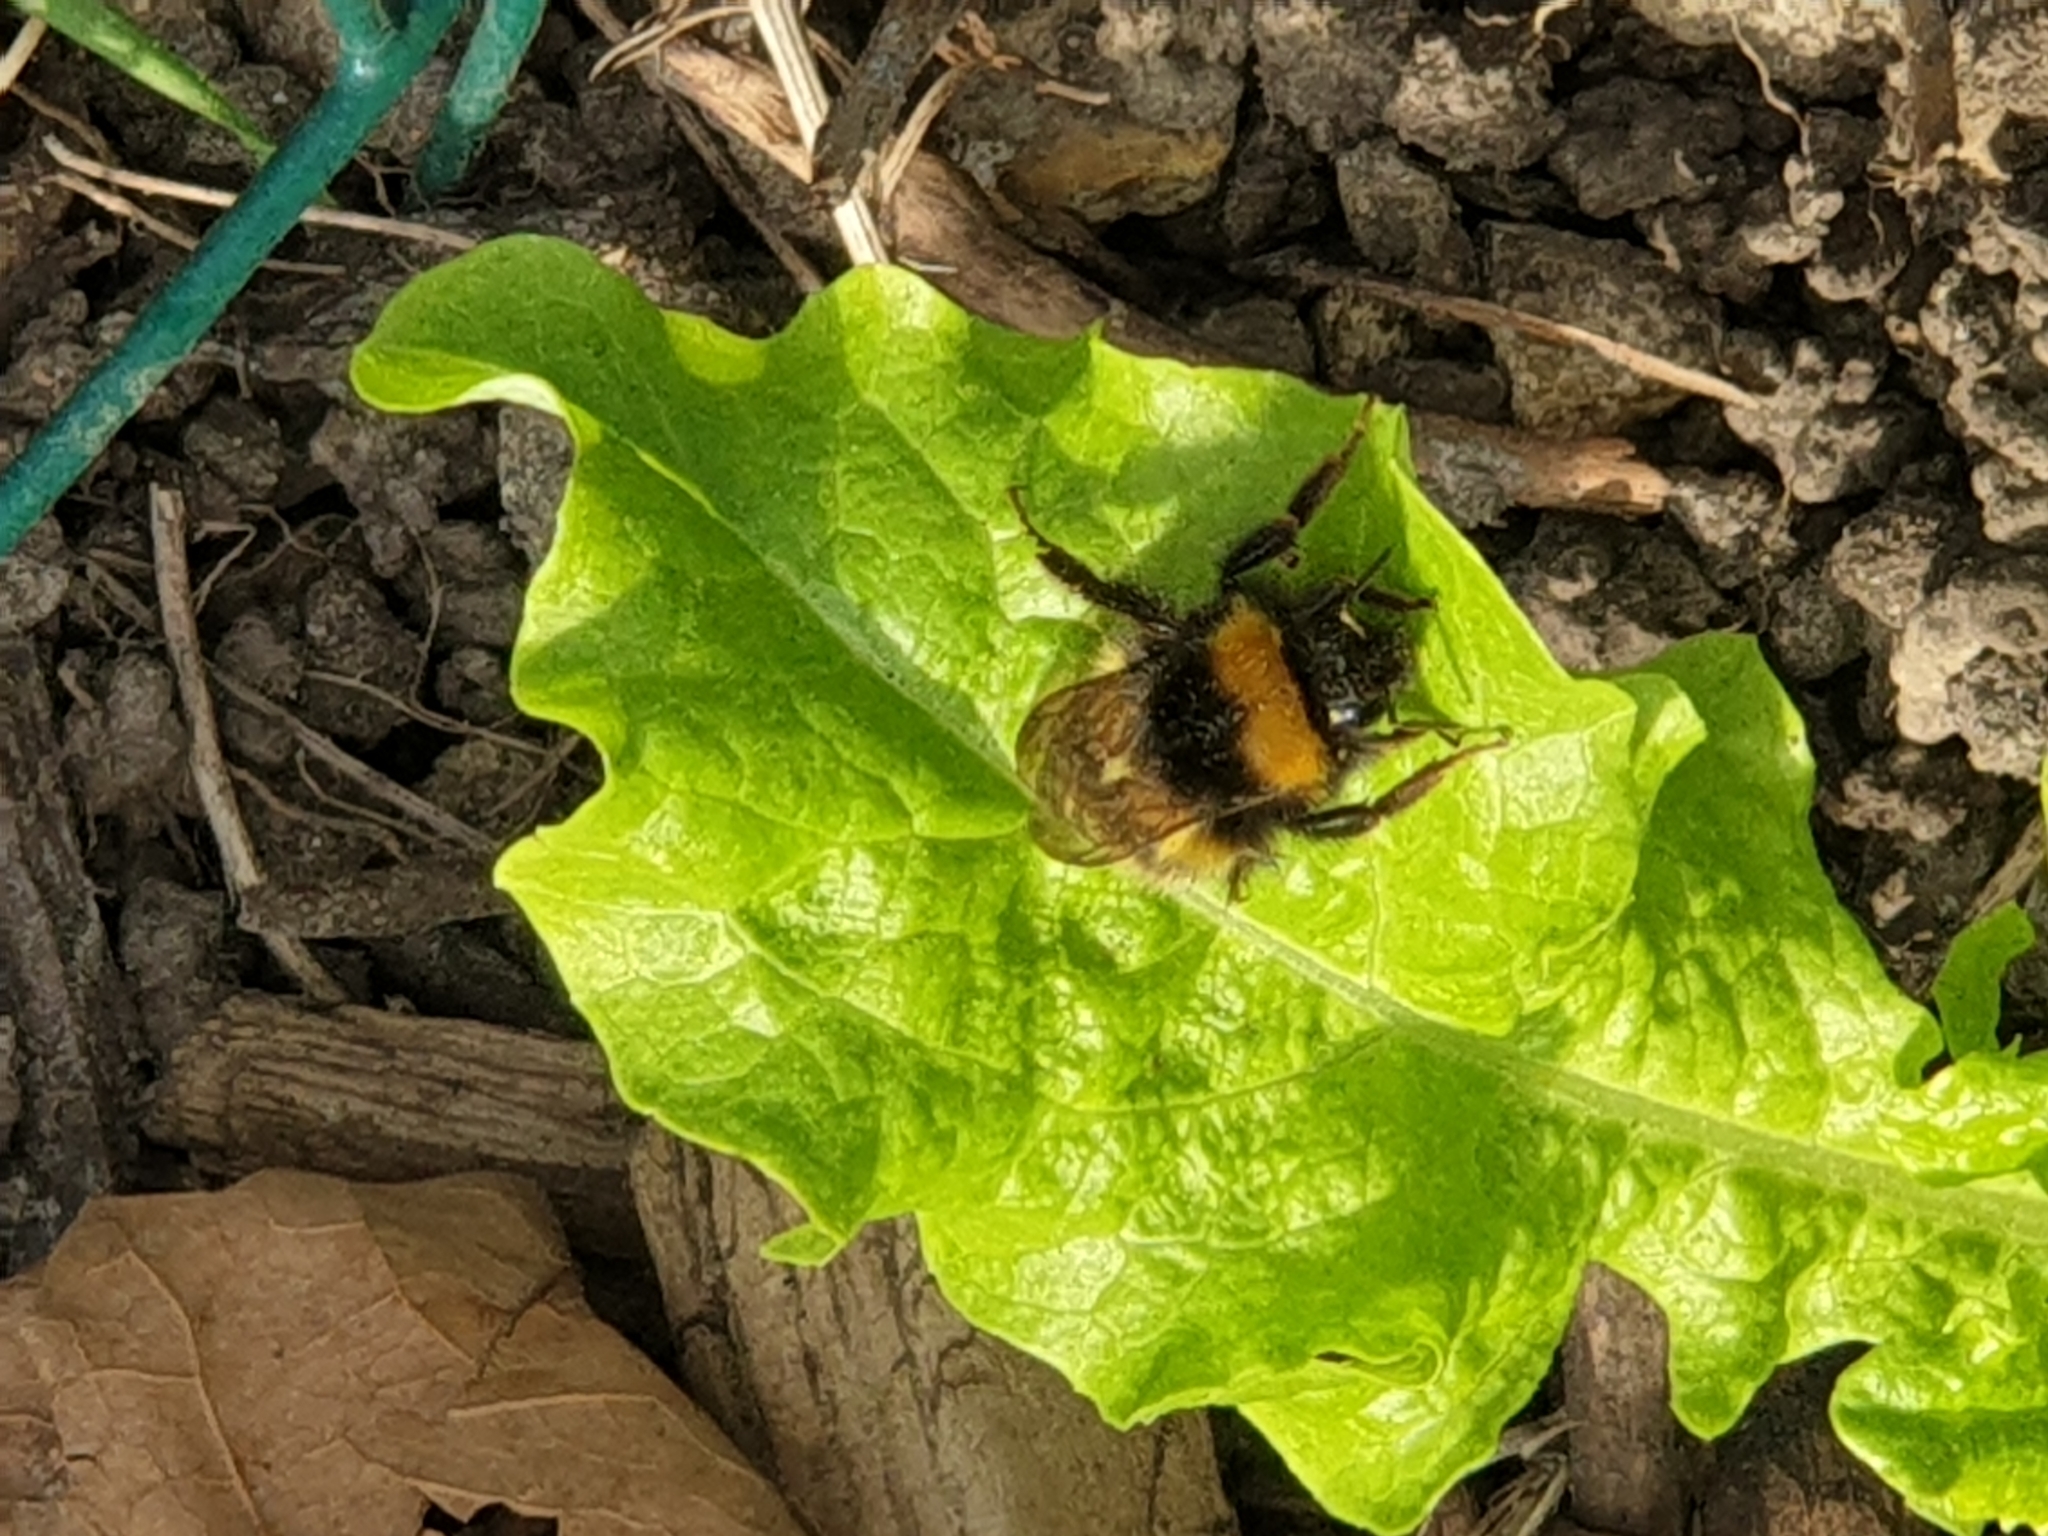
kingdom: Animalia
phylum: Arthropoda
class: Insecta
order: Hymenoptera
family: Apidae
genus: Bombus
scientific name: Bombus pratorum
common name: Early humble-bee
